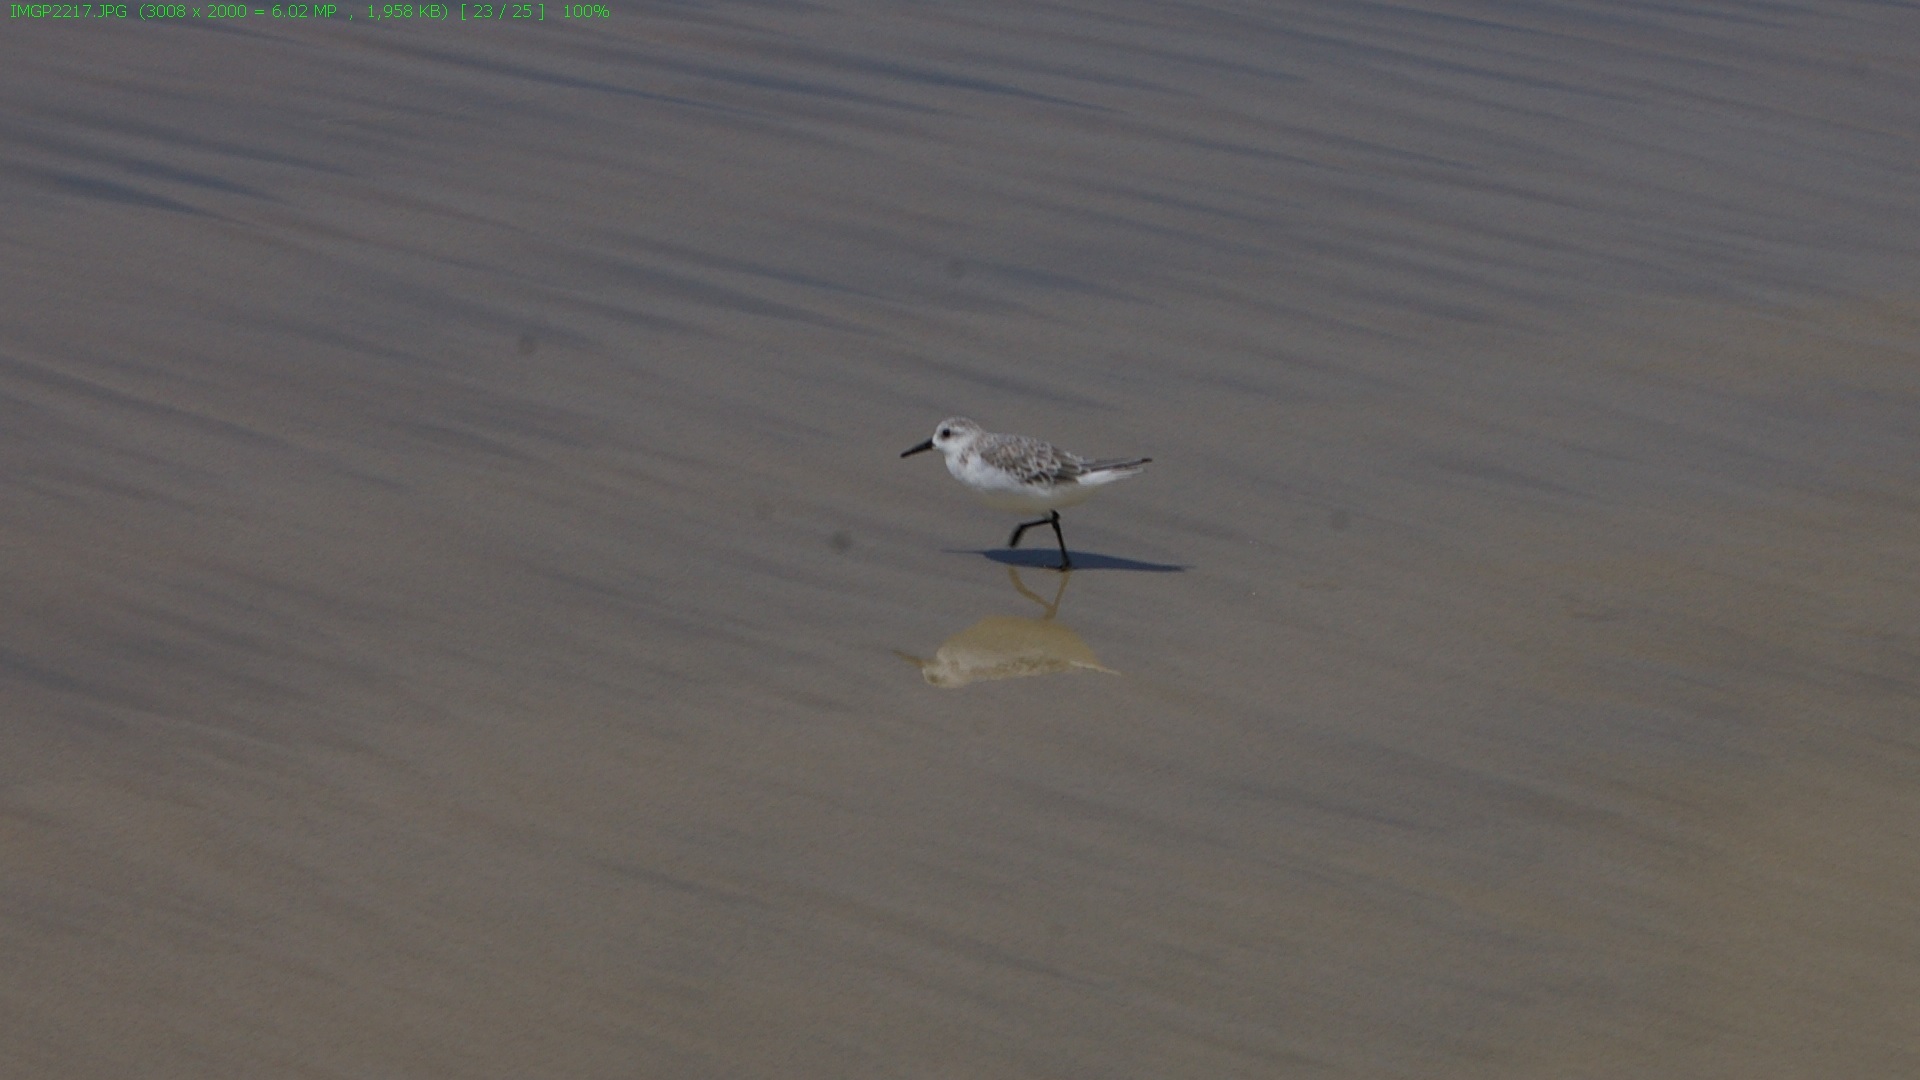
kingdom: Animalia
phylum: Chordata
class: Aves
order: Charadriiformes
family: Scolopacidae
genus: Calidris
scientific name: Calidris alba
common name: Sanderling
